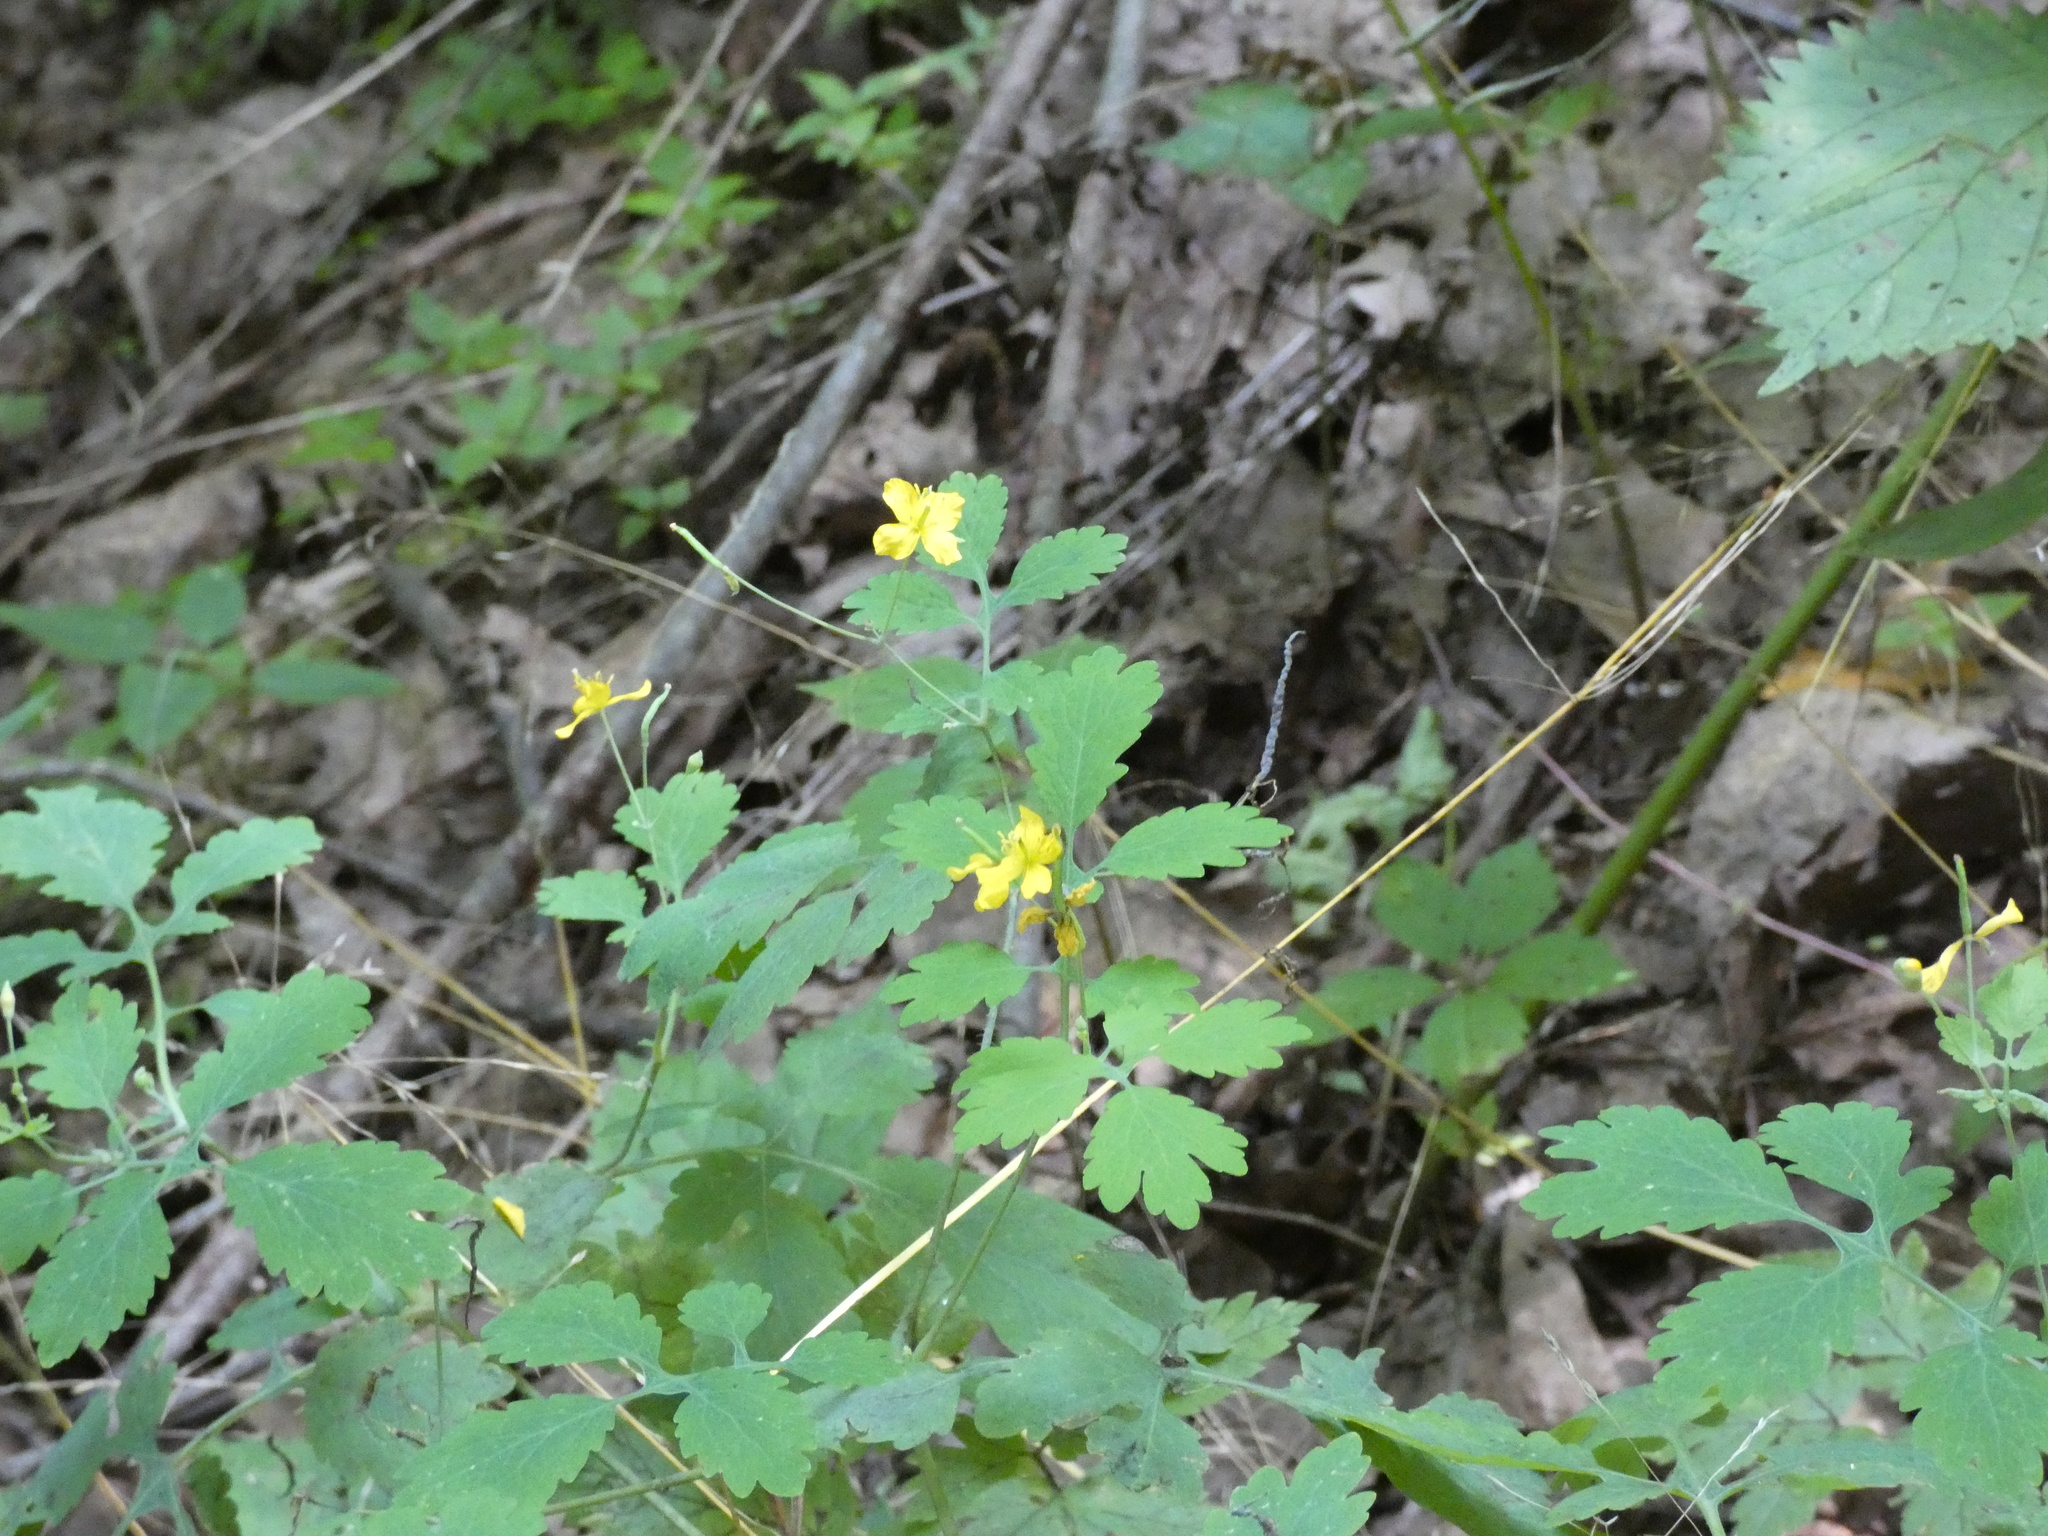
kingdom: Plantae
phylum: Tracheophyta
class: Magnoliopsida
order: Ranunculales
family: Papaveraceae
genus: Chelidonium
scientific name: Chelidonium majus
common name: Greater celandine
